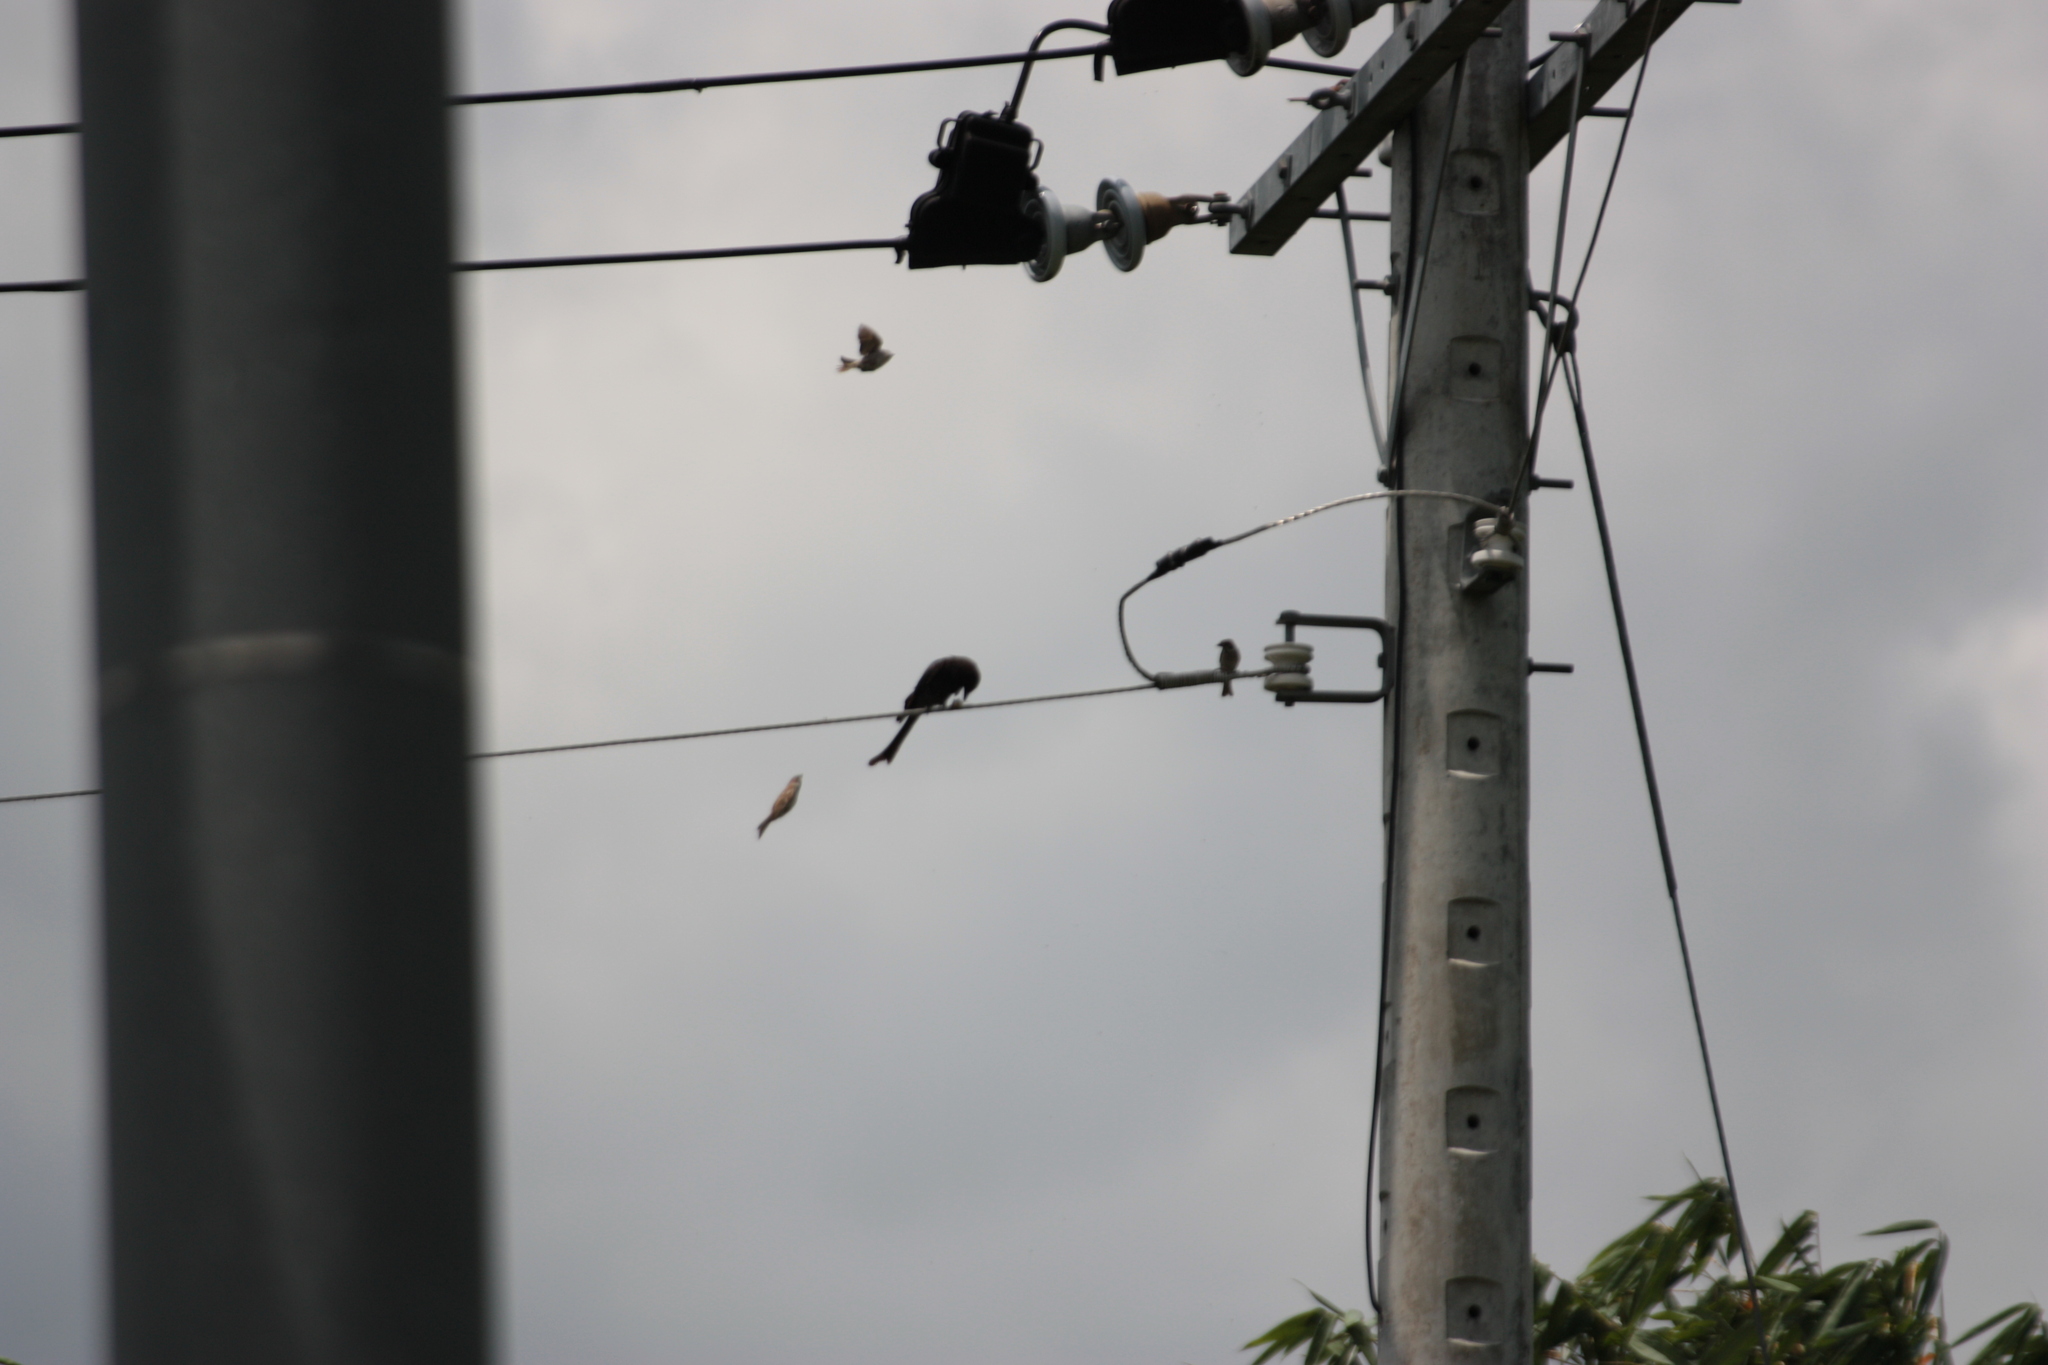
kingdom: Animalia
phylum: Chordata
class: Aves
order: Passeriformes
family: Dicruridae
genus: Dicrurus
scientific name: Dicrurus macrocercus
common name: Black drongo
